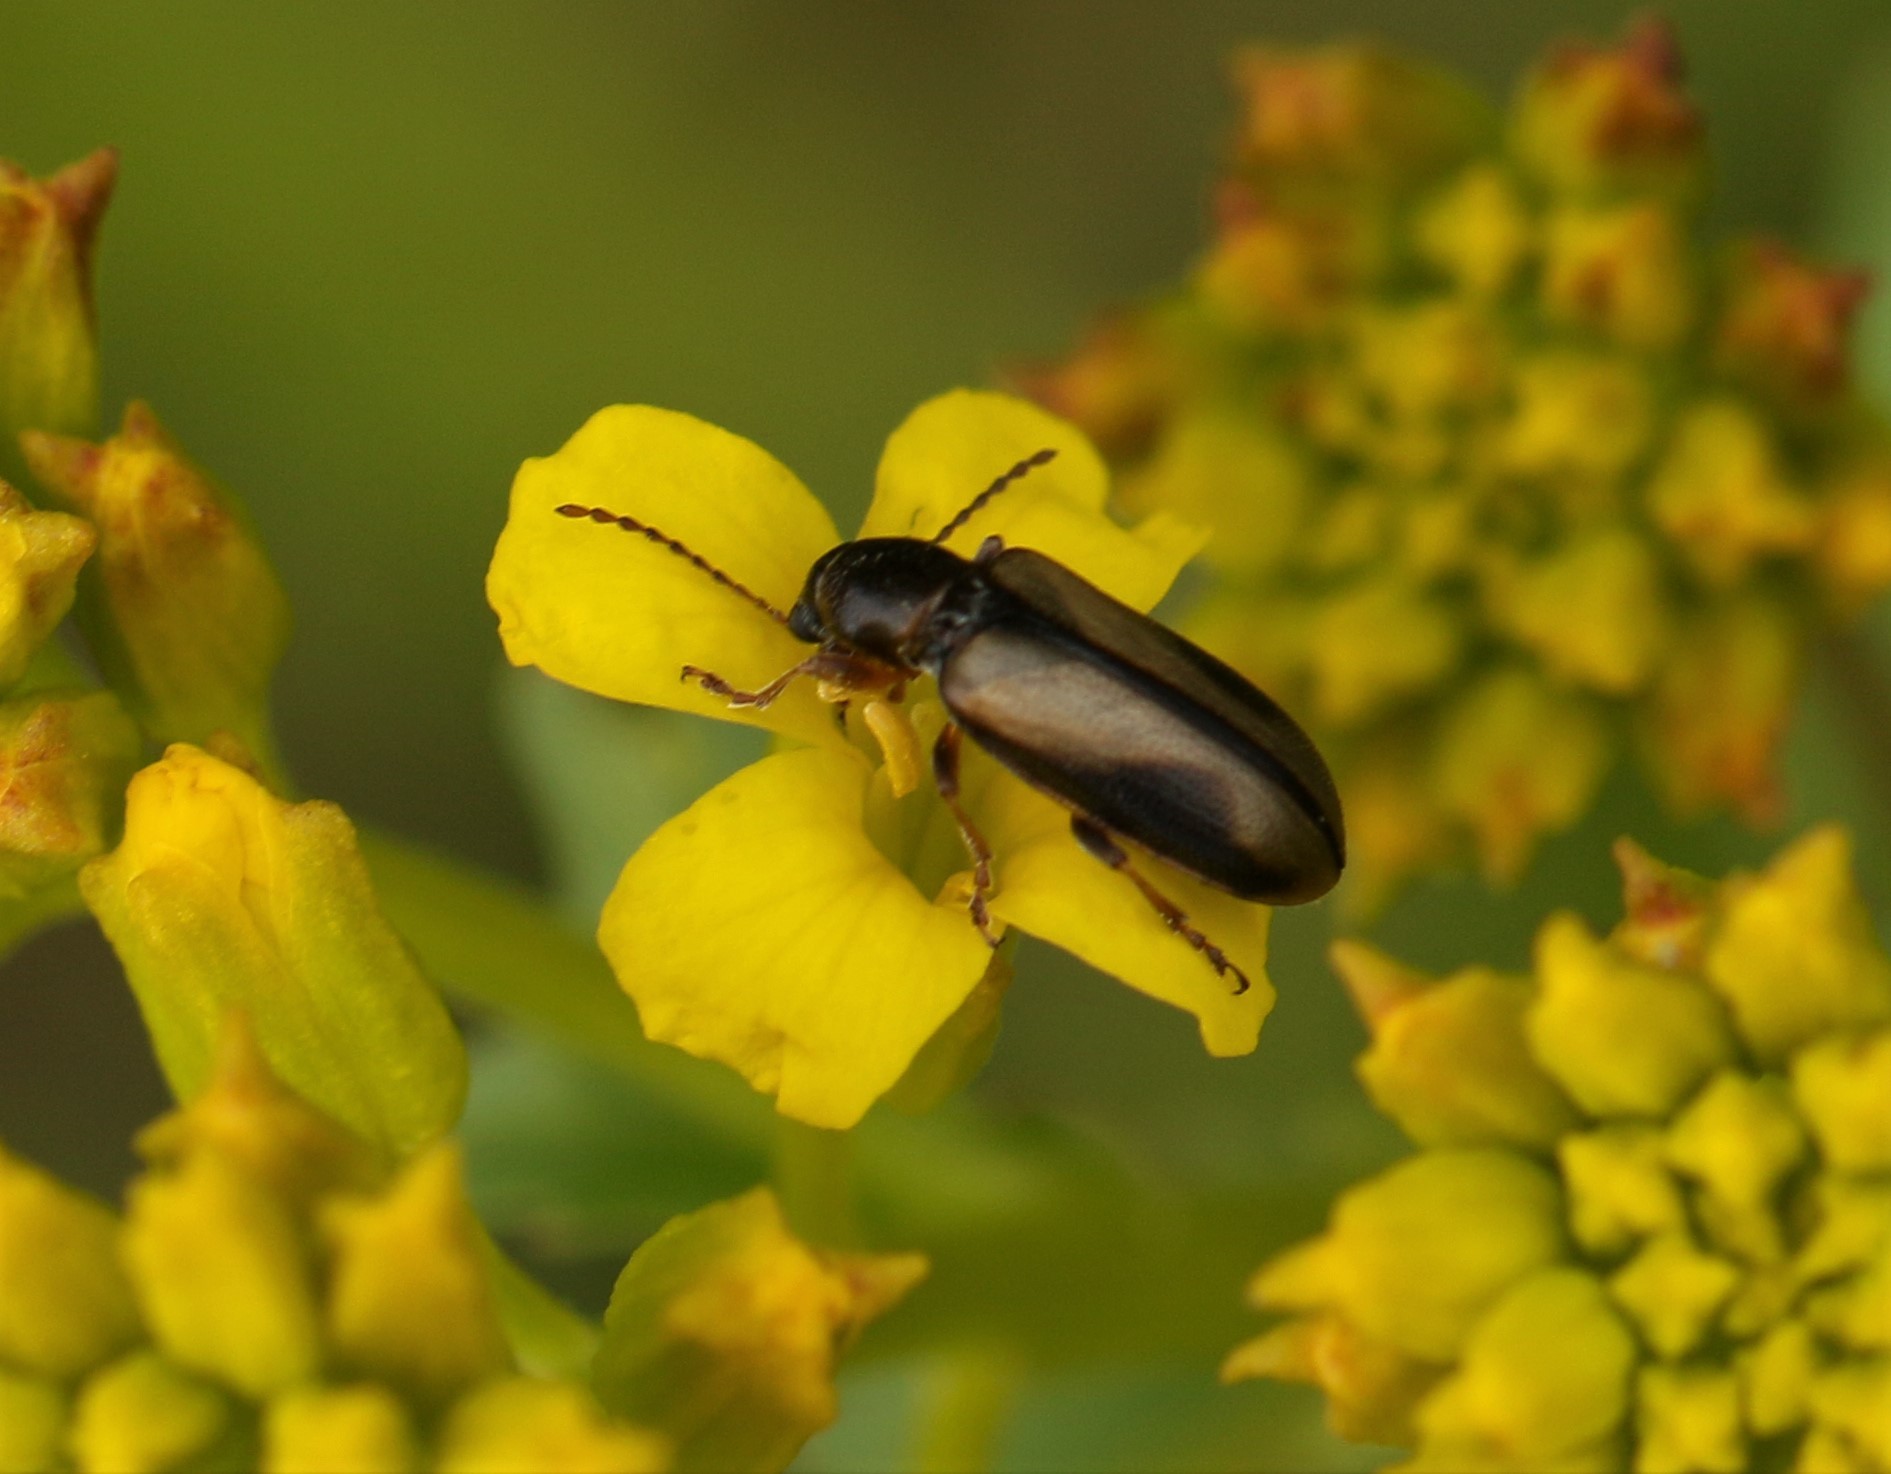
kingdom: Animalia
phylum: Arthropoda
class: Insecta
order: Coleoptera
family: Orsodacnidae
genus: Orsodacne
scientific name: Orsodacne atra
